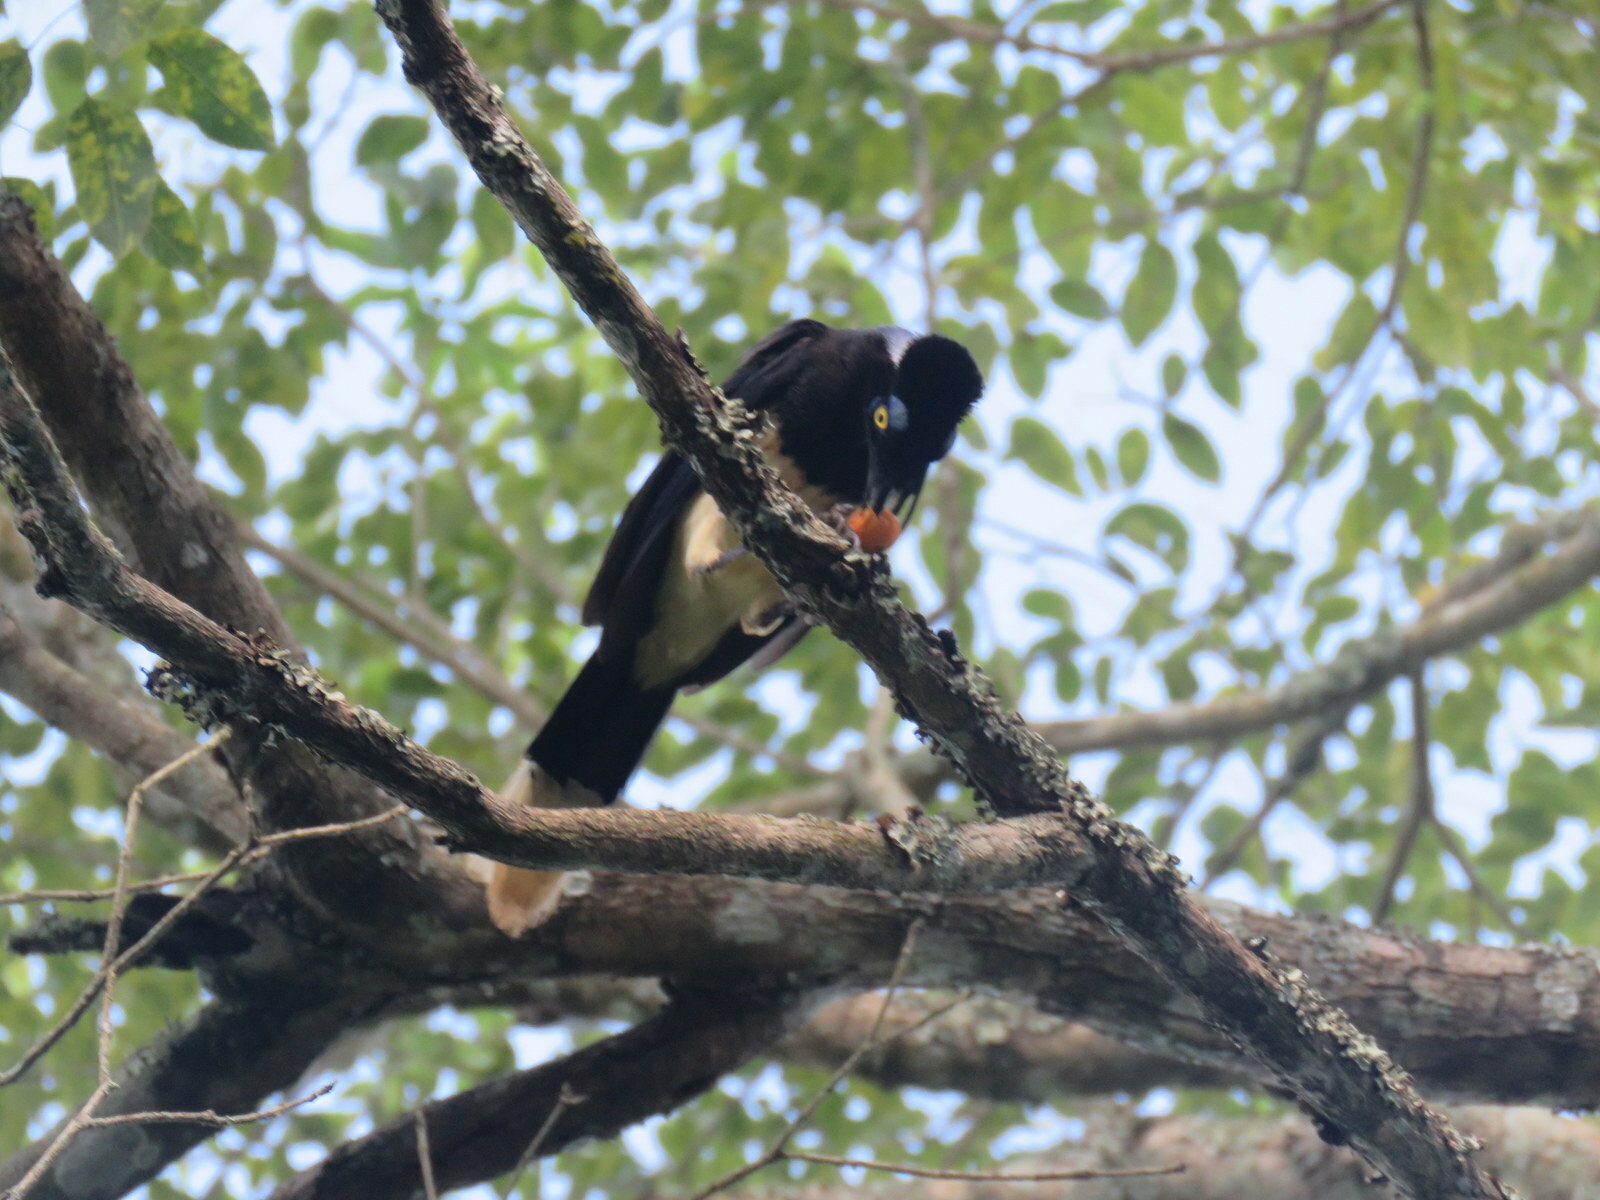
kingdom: Animalia
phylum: Chordata
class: Aves
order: Passeriformes
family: Corvidae
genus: Cyanocorax
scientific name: Cyanocorax chrysops
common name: Plush-crested jay
